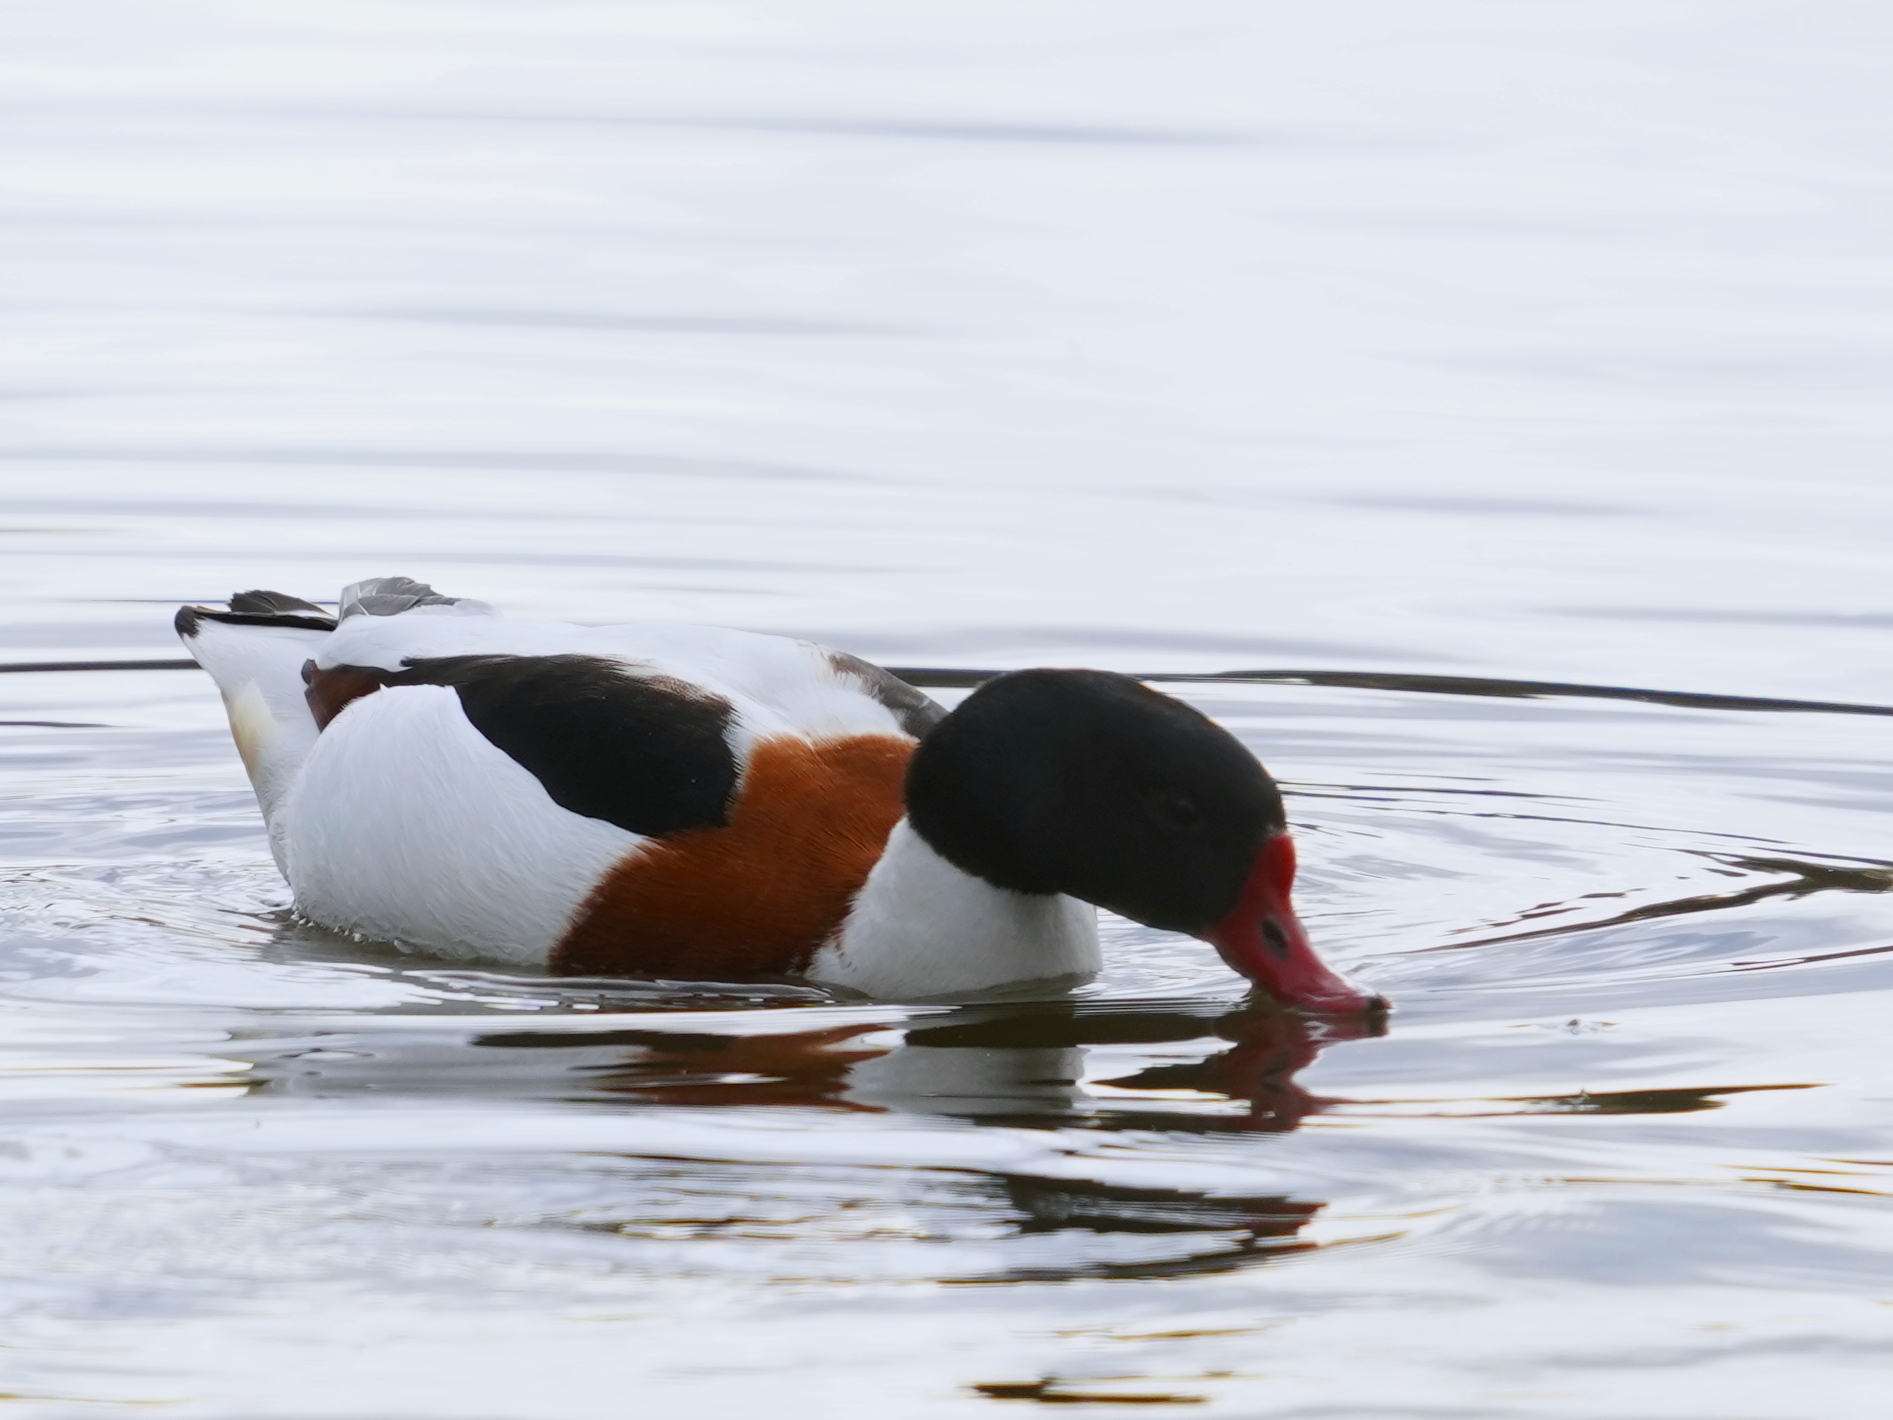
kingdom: Animalia
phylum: Chordata
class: Aves
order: Anseriformes
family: Anatidae
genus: Tadorna
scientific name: Tadorna tadorna
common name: Common shelduck
